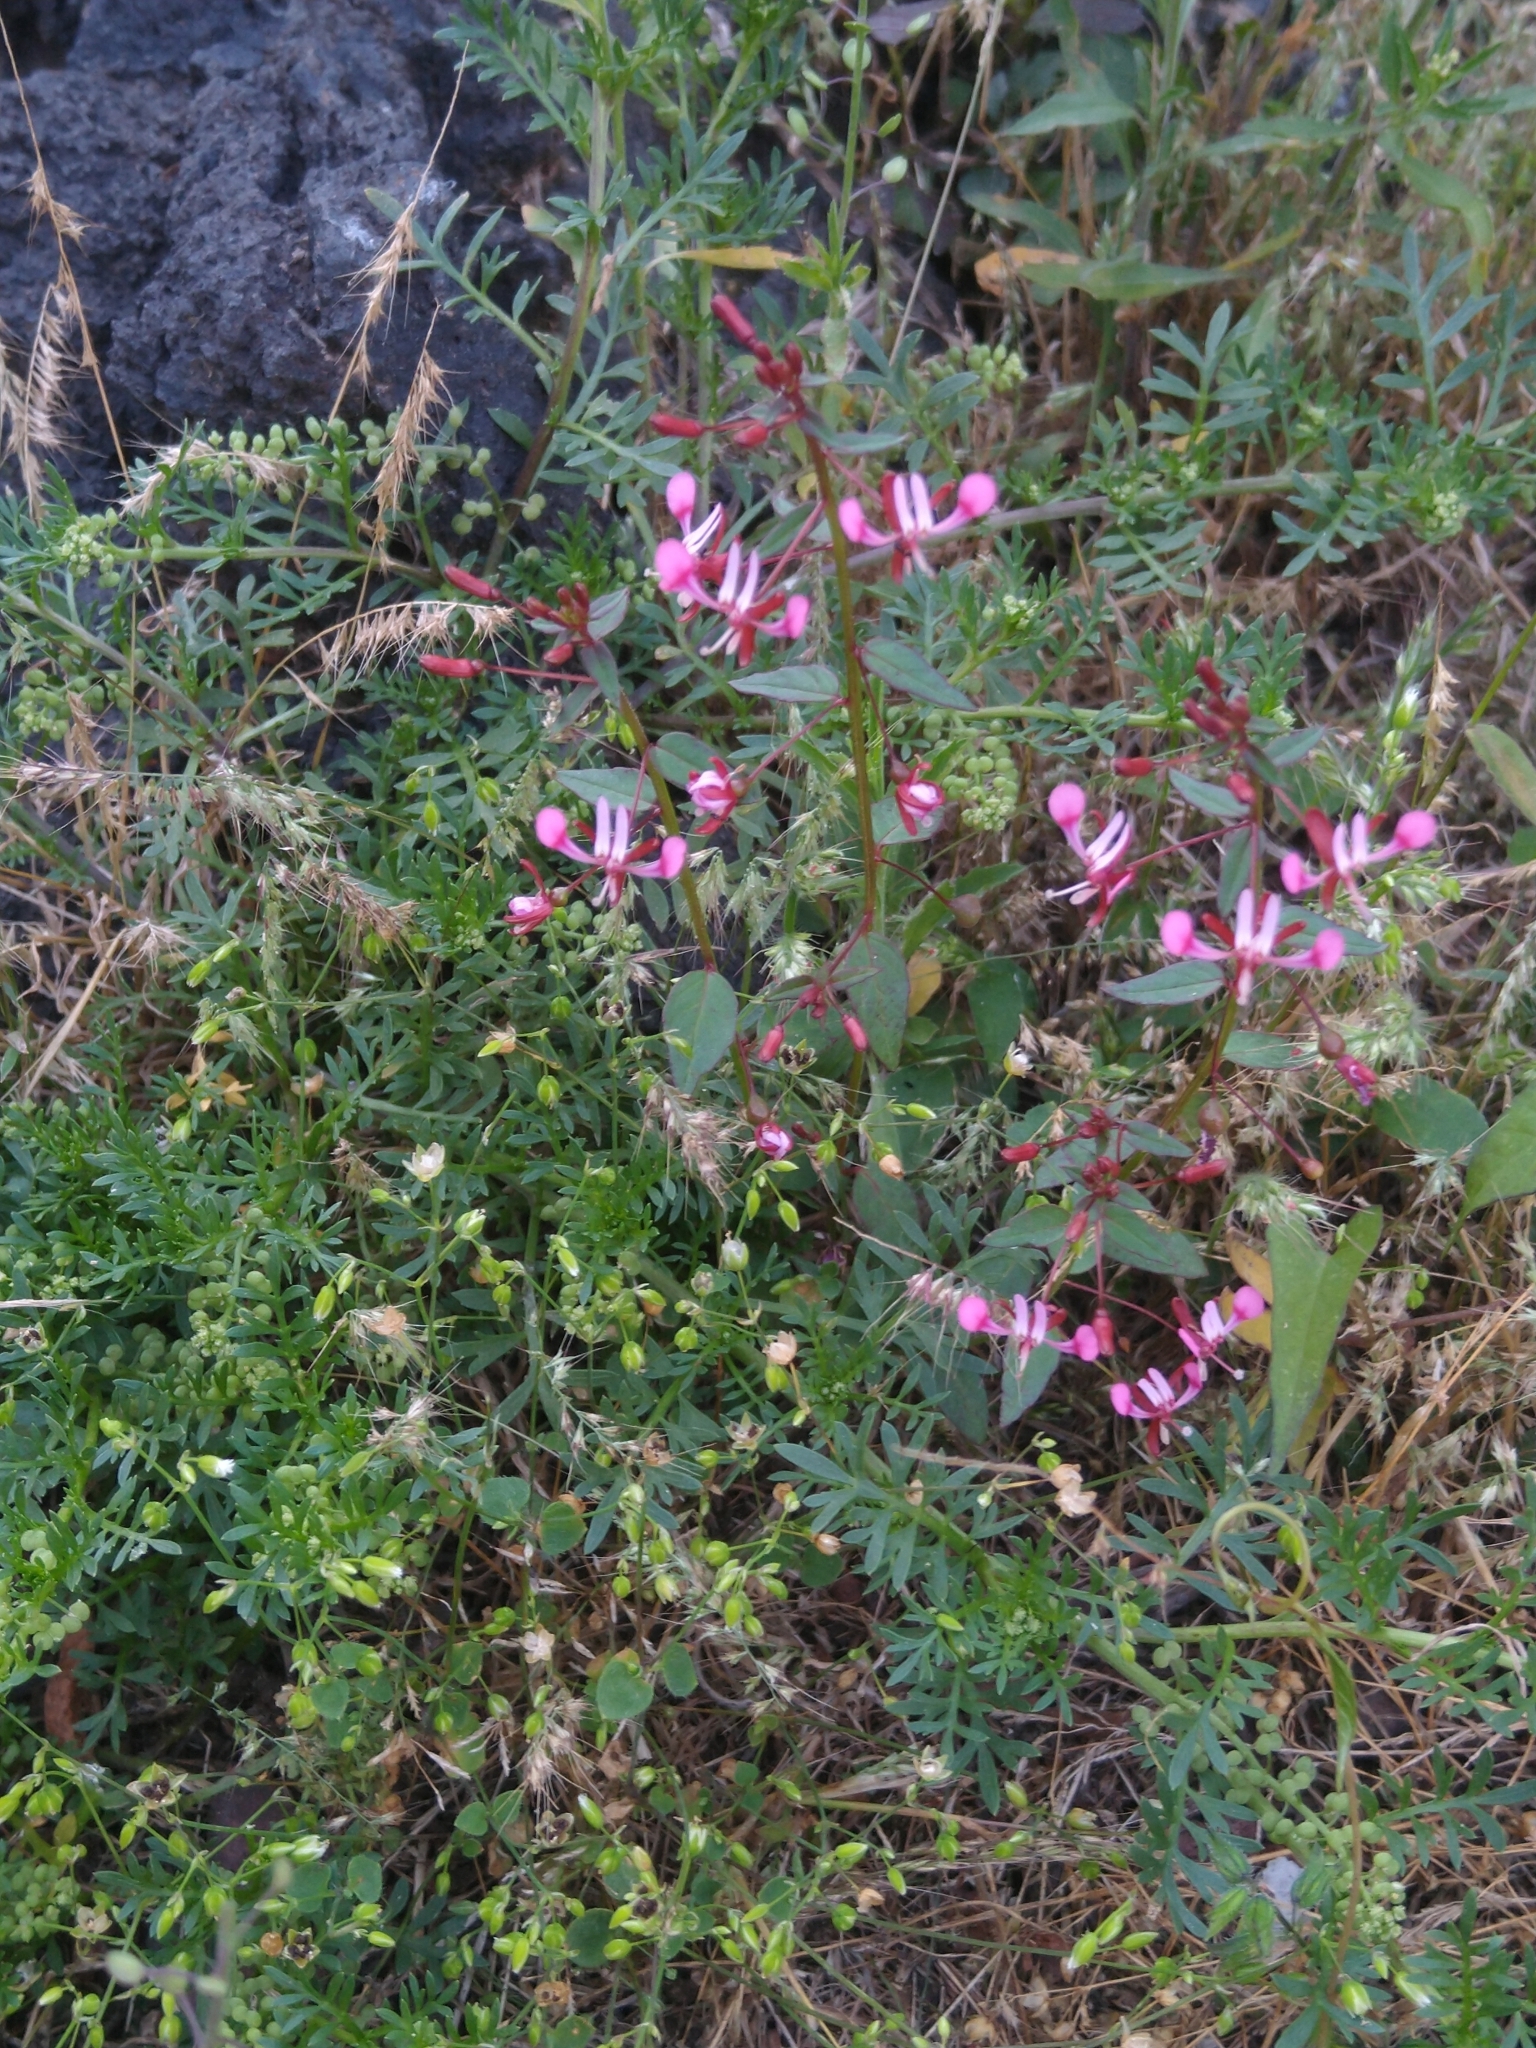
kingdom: Plantae
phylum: Tracheophyta
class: Magnoliopsida
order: Myrtales
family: Onagraceae
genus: Lopezia
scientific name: Lopezia racemosa
